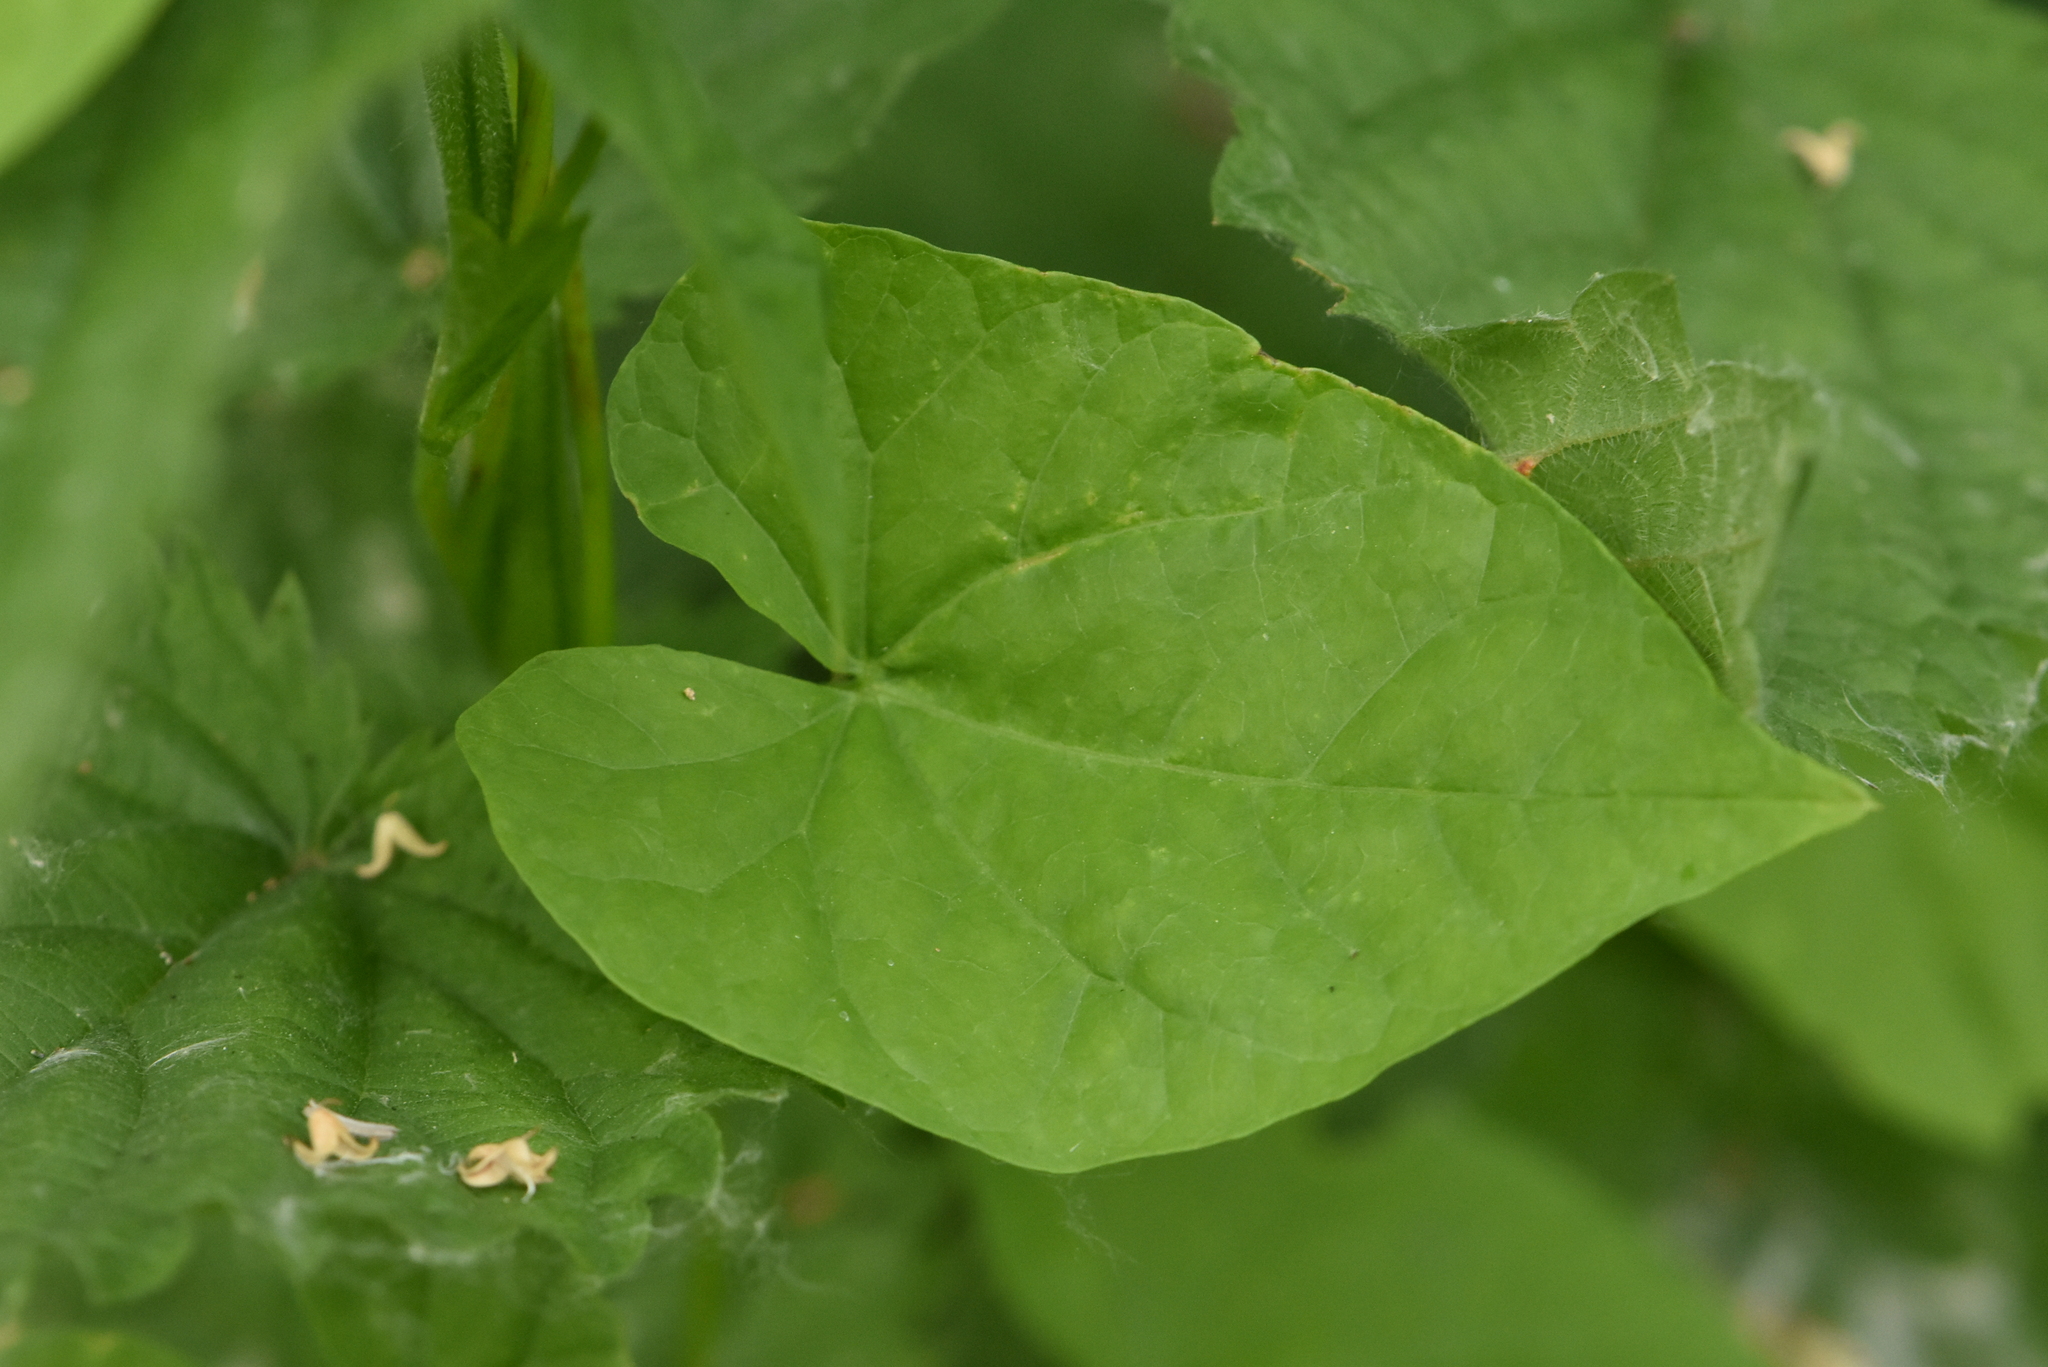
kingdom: Plantae
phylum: Tracheophyta
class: Magnoliopsida
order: Solanales
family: Convolvulaceae
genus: Calystegia
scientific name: Calystegia sepium
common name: Hedge bindweed
